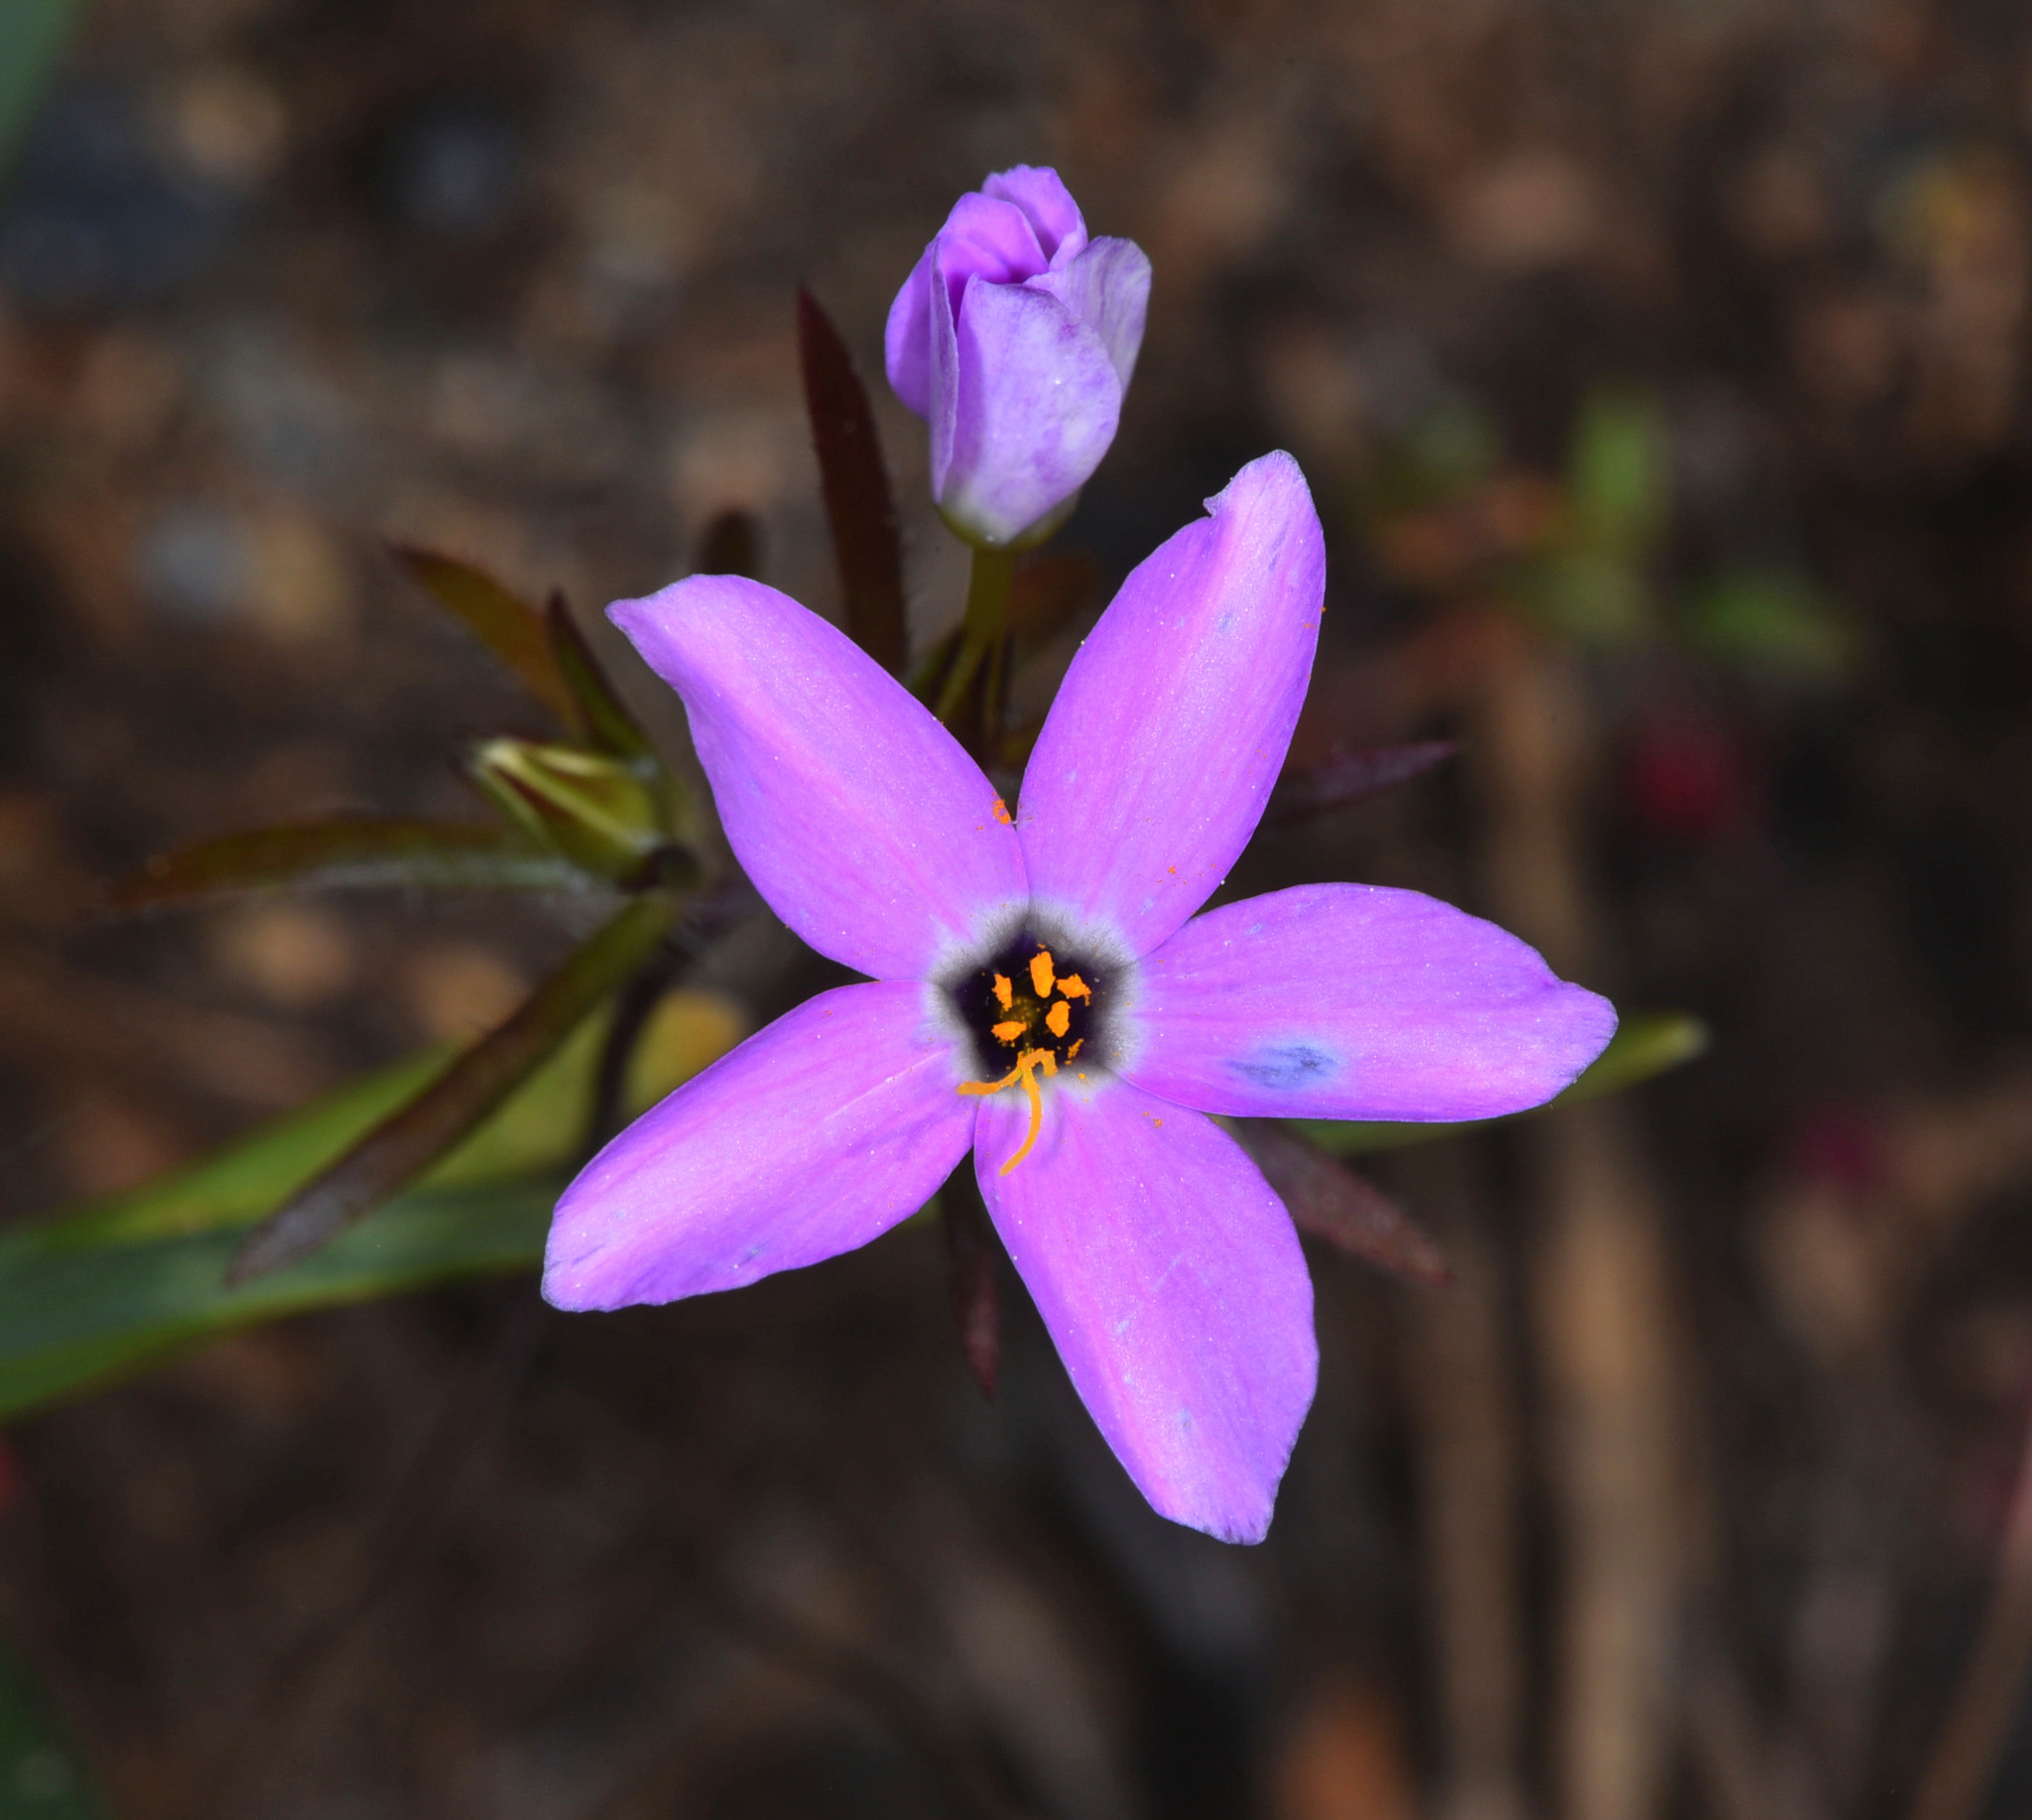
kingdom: Plantae
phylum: Tracheophyta
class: Magnoliopsida
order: Ericales
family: Polemoniaceae
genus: Leptosiphon
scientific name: Leptosiphon androsaceus
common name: False babystars
